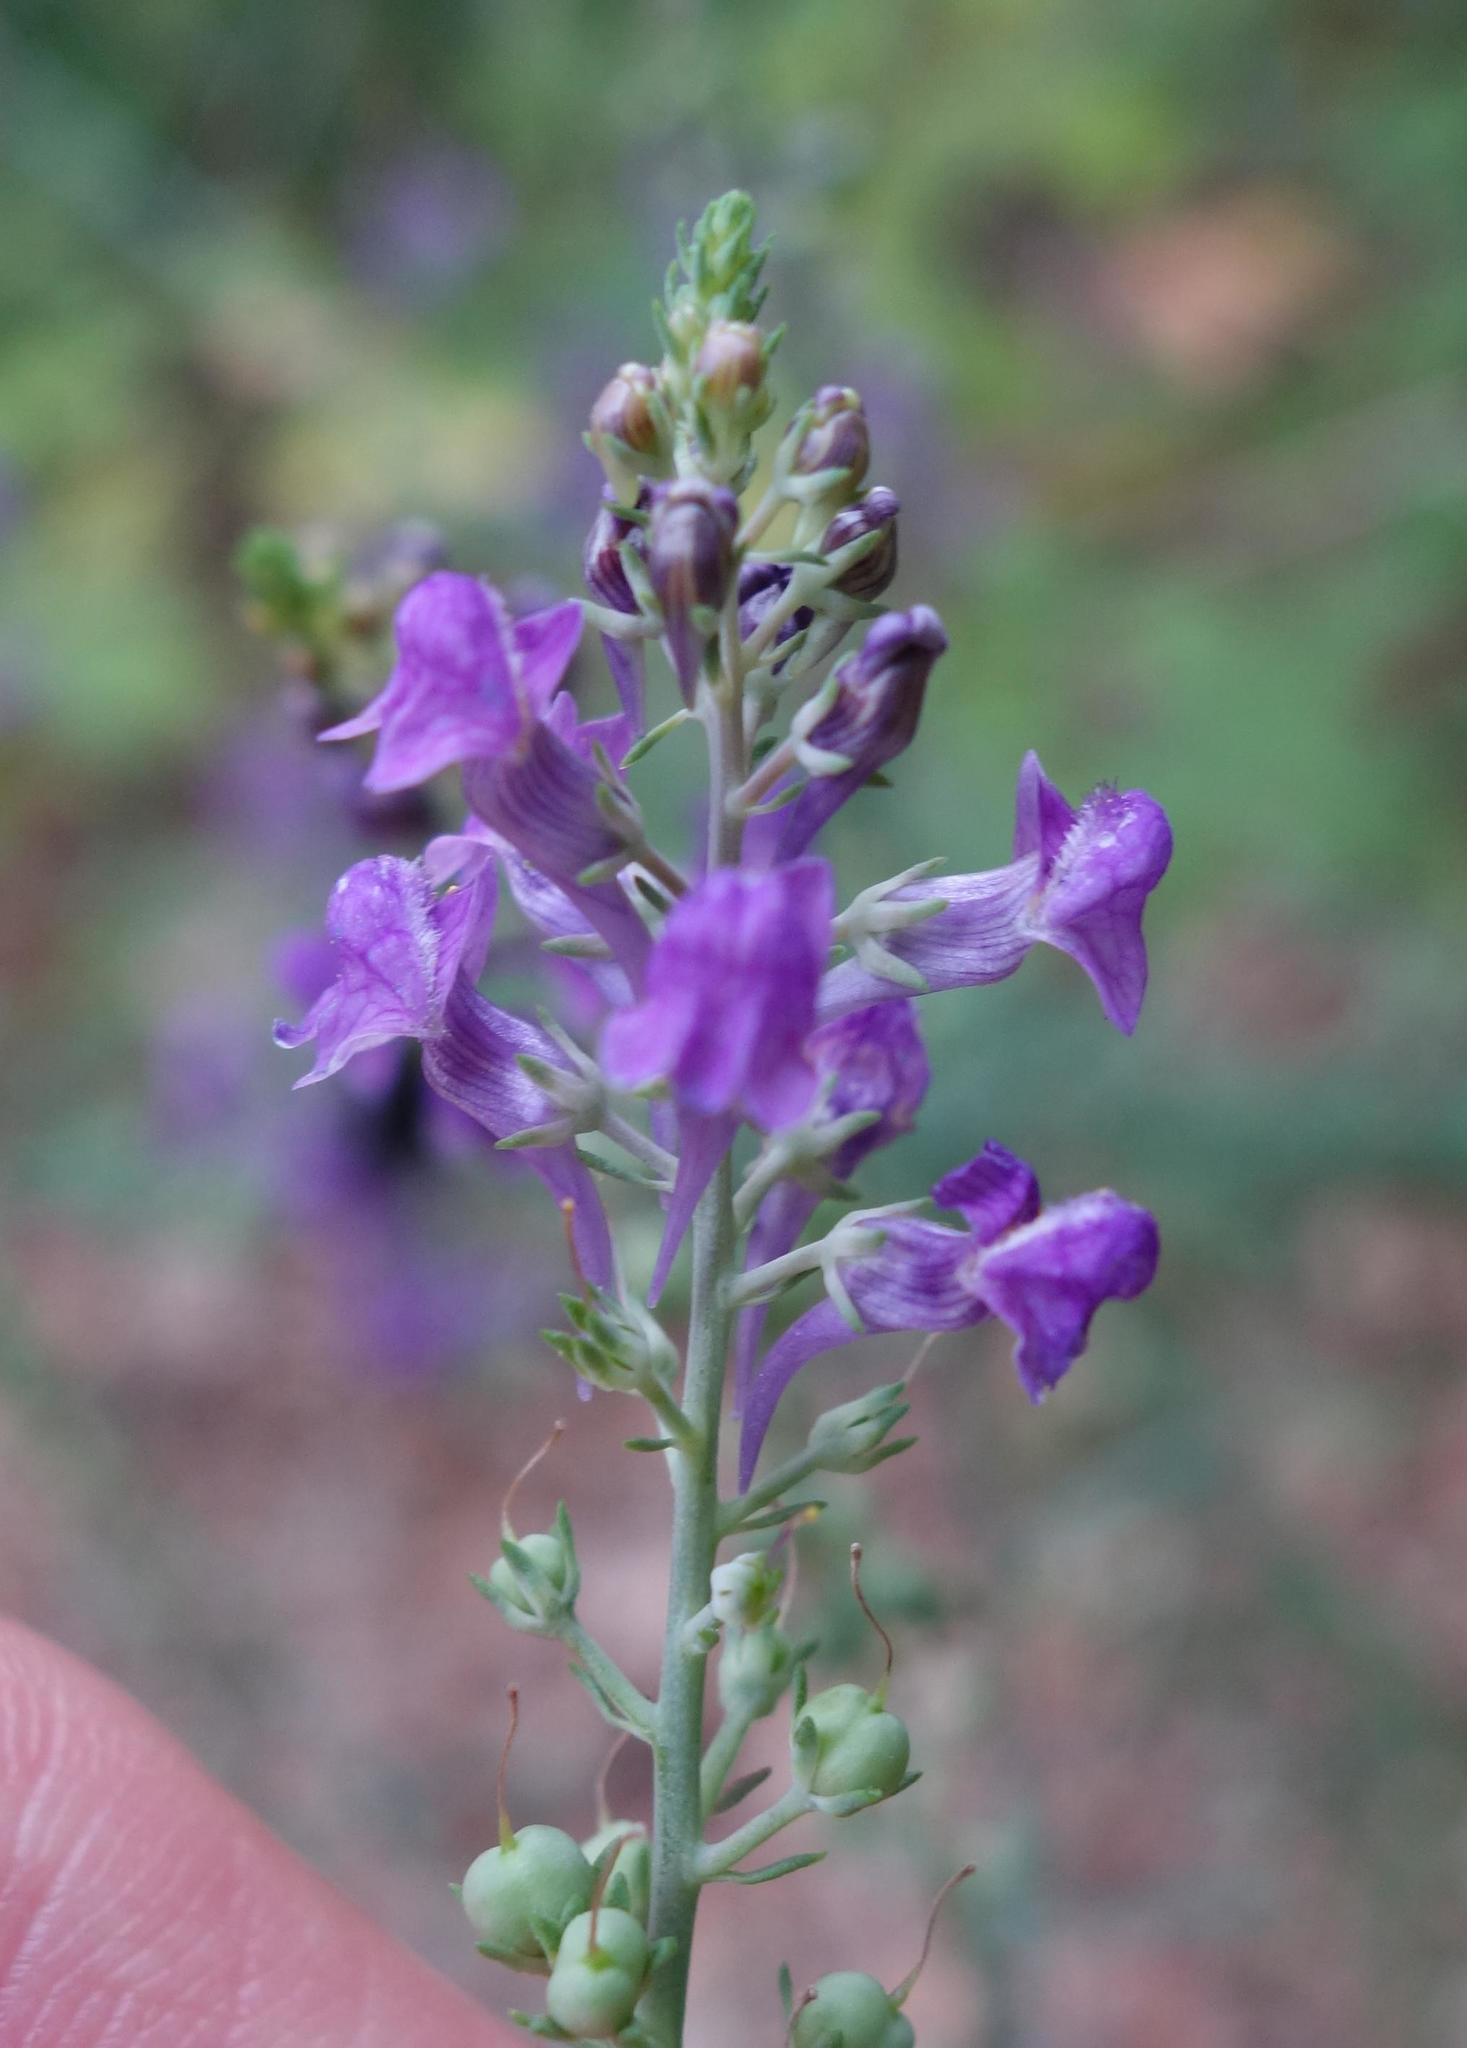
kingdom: Plantae
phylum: Tracheophyta
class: Magnoliopsida
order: Lamiales
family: Plantaginaceae
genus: Linaria
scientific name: Linaria purpurea
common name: Purple toadflax
